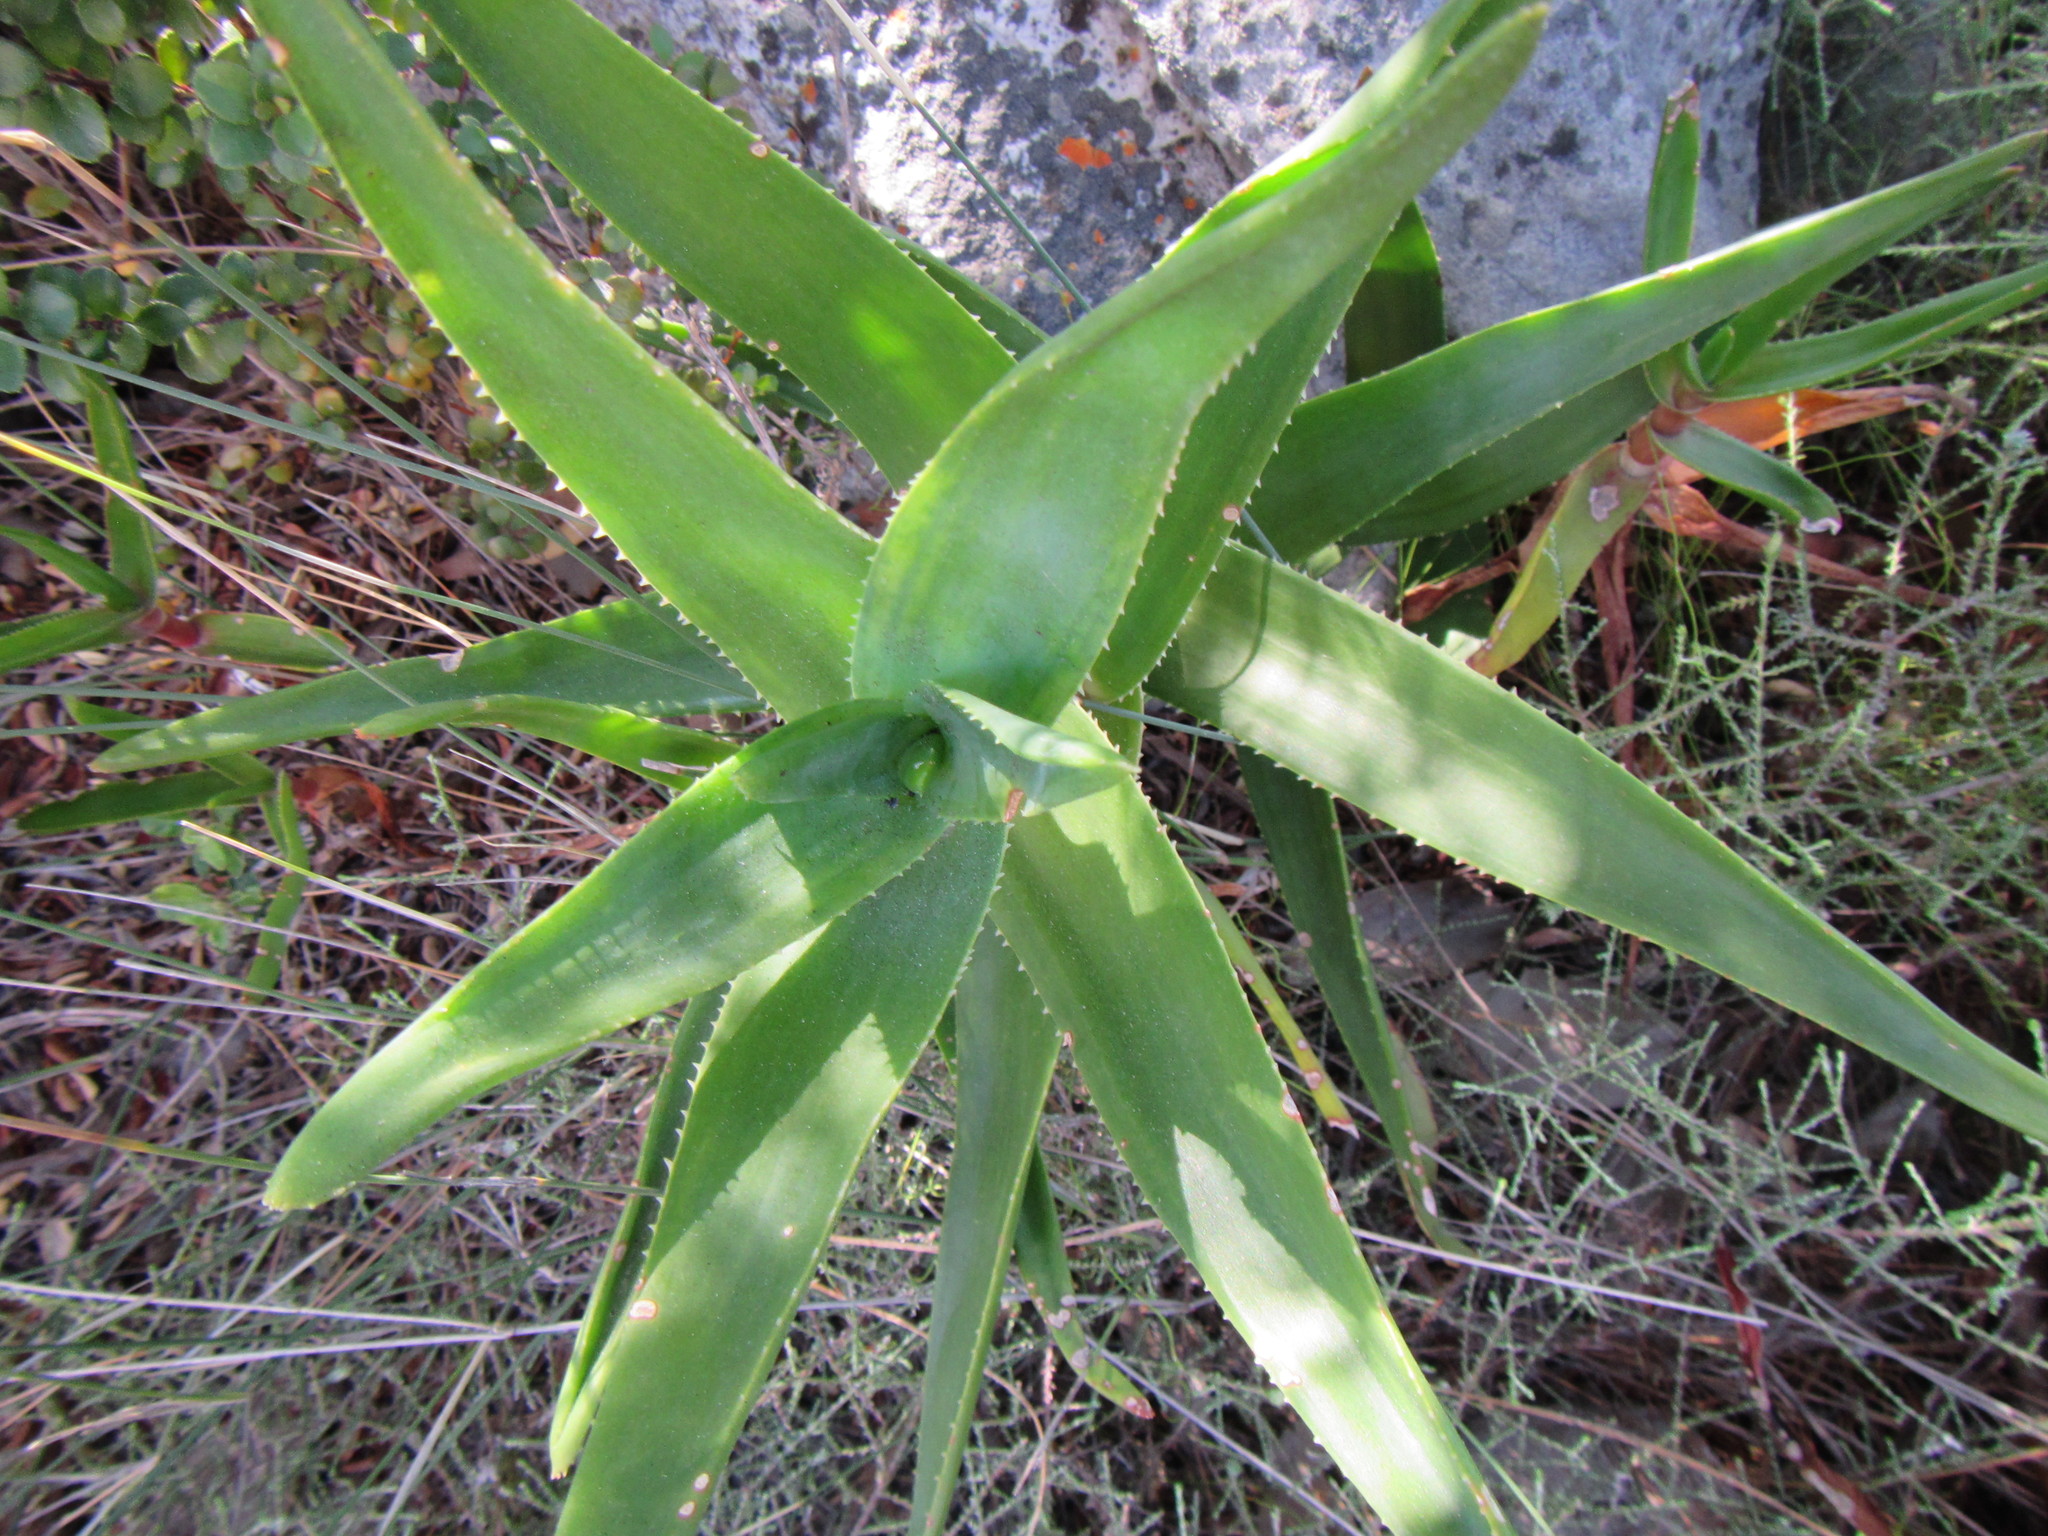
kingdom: Plantae
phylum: Tracheophyta
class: Liliopsida
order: Asparagales
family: Asphodelaceae
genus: Aloiampelos
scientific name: Aloiampelos commixta
